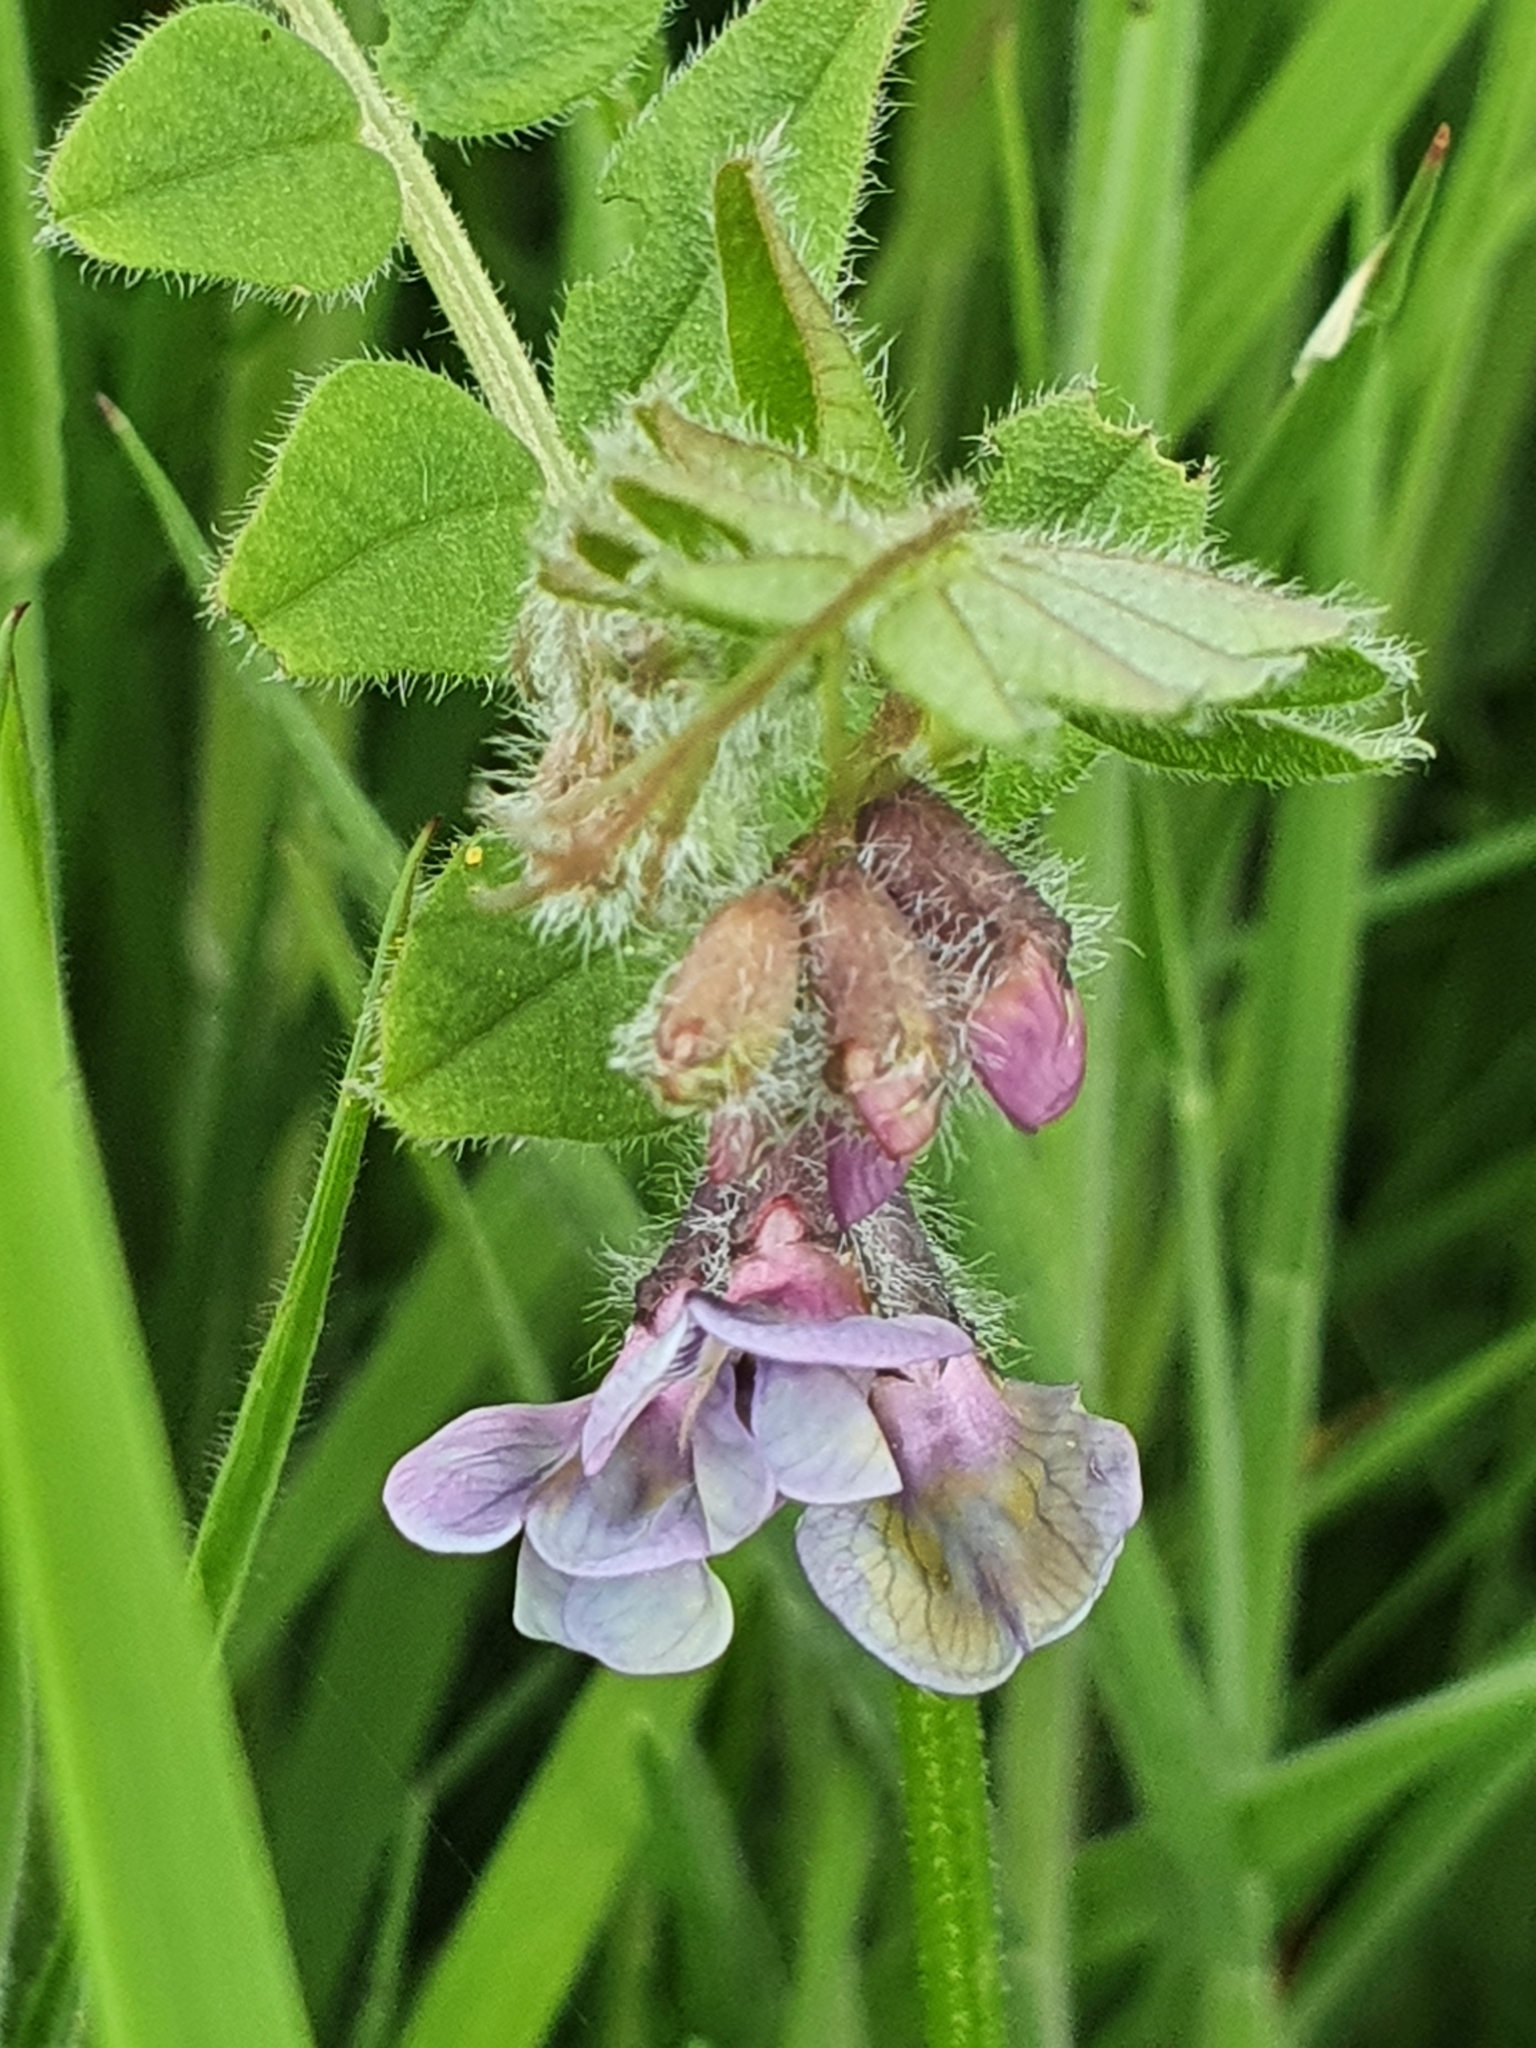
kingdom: Plantae
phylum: Tracheophyta
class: Magnoliopsida
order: Fabales
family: Fabaceae
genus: Vicia
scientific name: Vicia sepium
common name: Bush vetch
